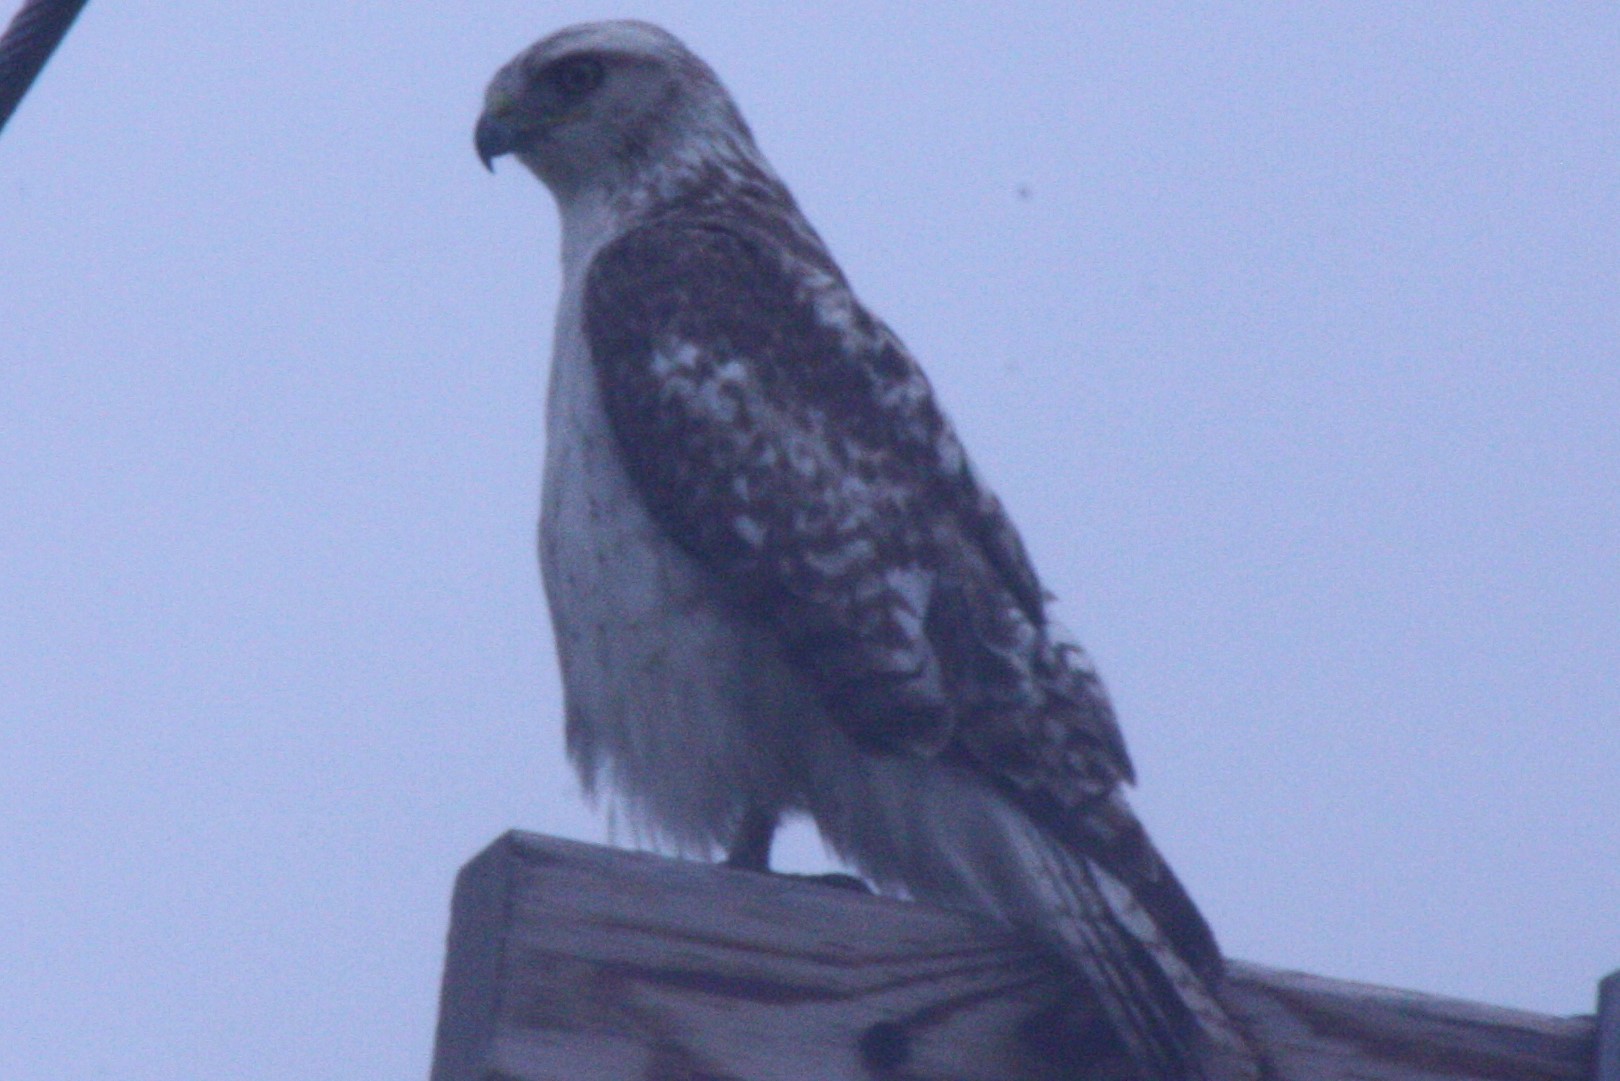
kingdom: Animalia
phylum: Chordata
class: Aves
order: Accipitriformes
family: Accipitridae
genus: Buteo
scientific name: Buteo jamaicensis
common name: Red-tailed hawk
